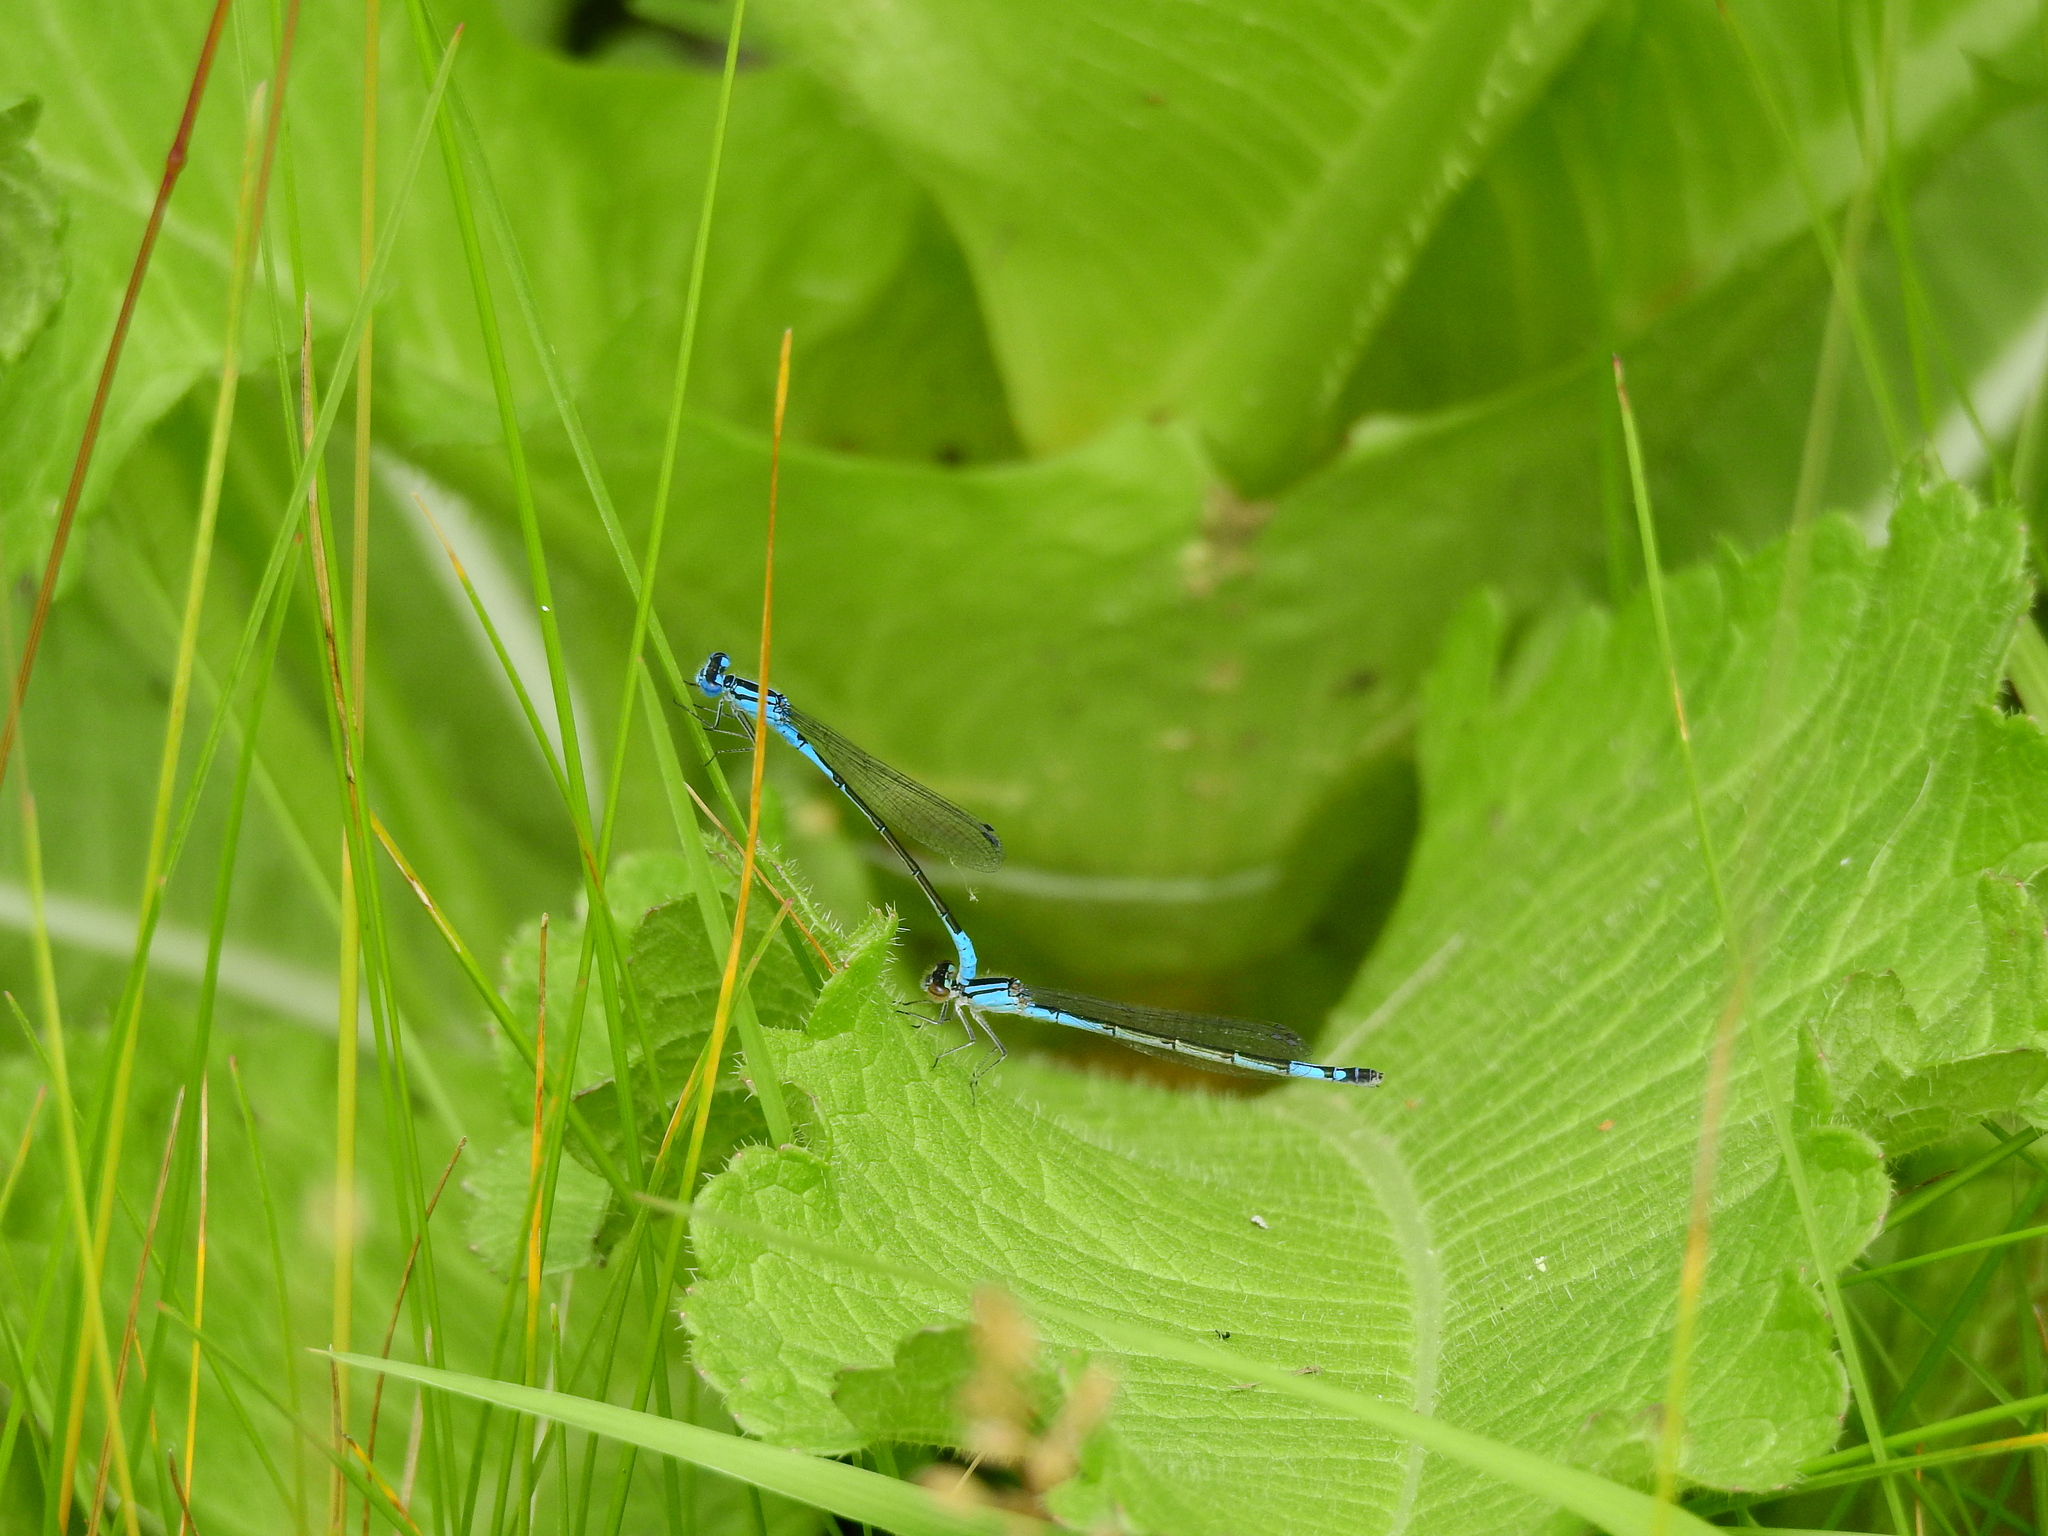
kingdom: Animalia
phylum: Arthropoda
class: Insecta
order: Odonata
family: Coenagrionidae
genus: Enallagma
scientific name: Enallagma aspersum
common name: Azure bluet
